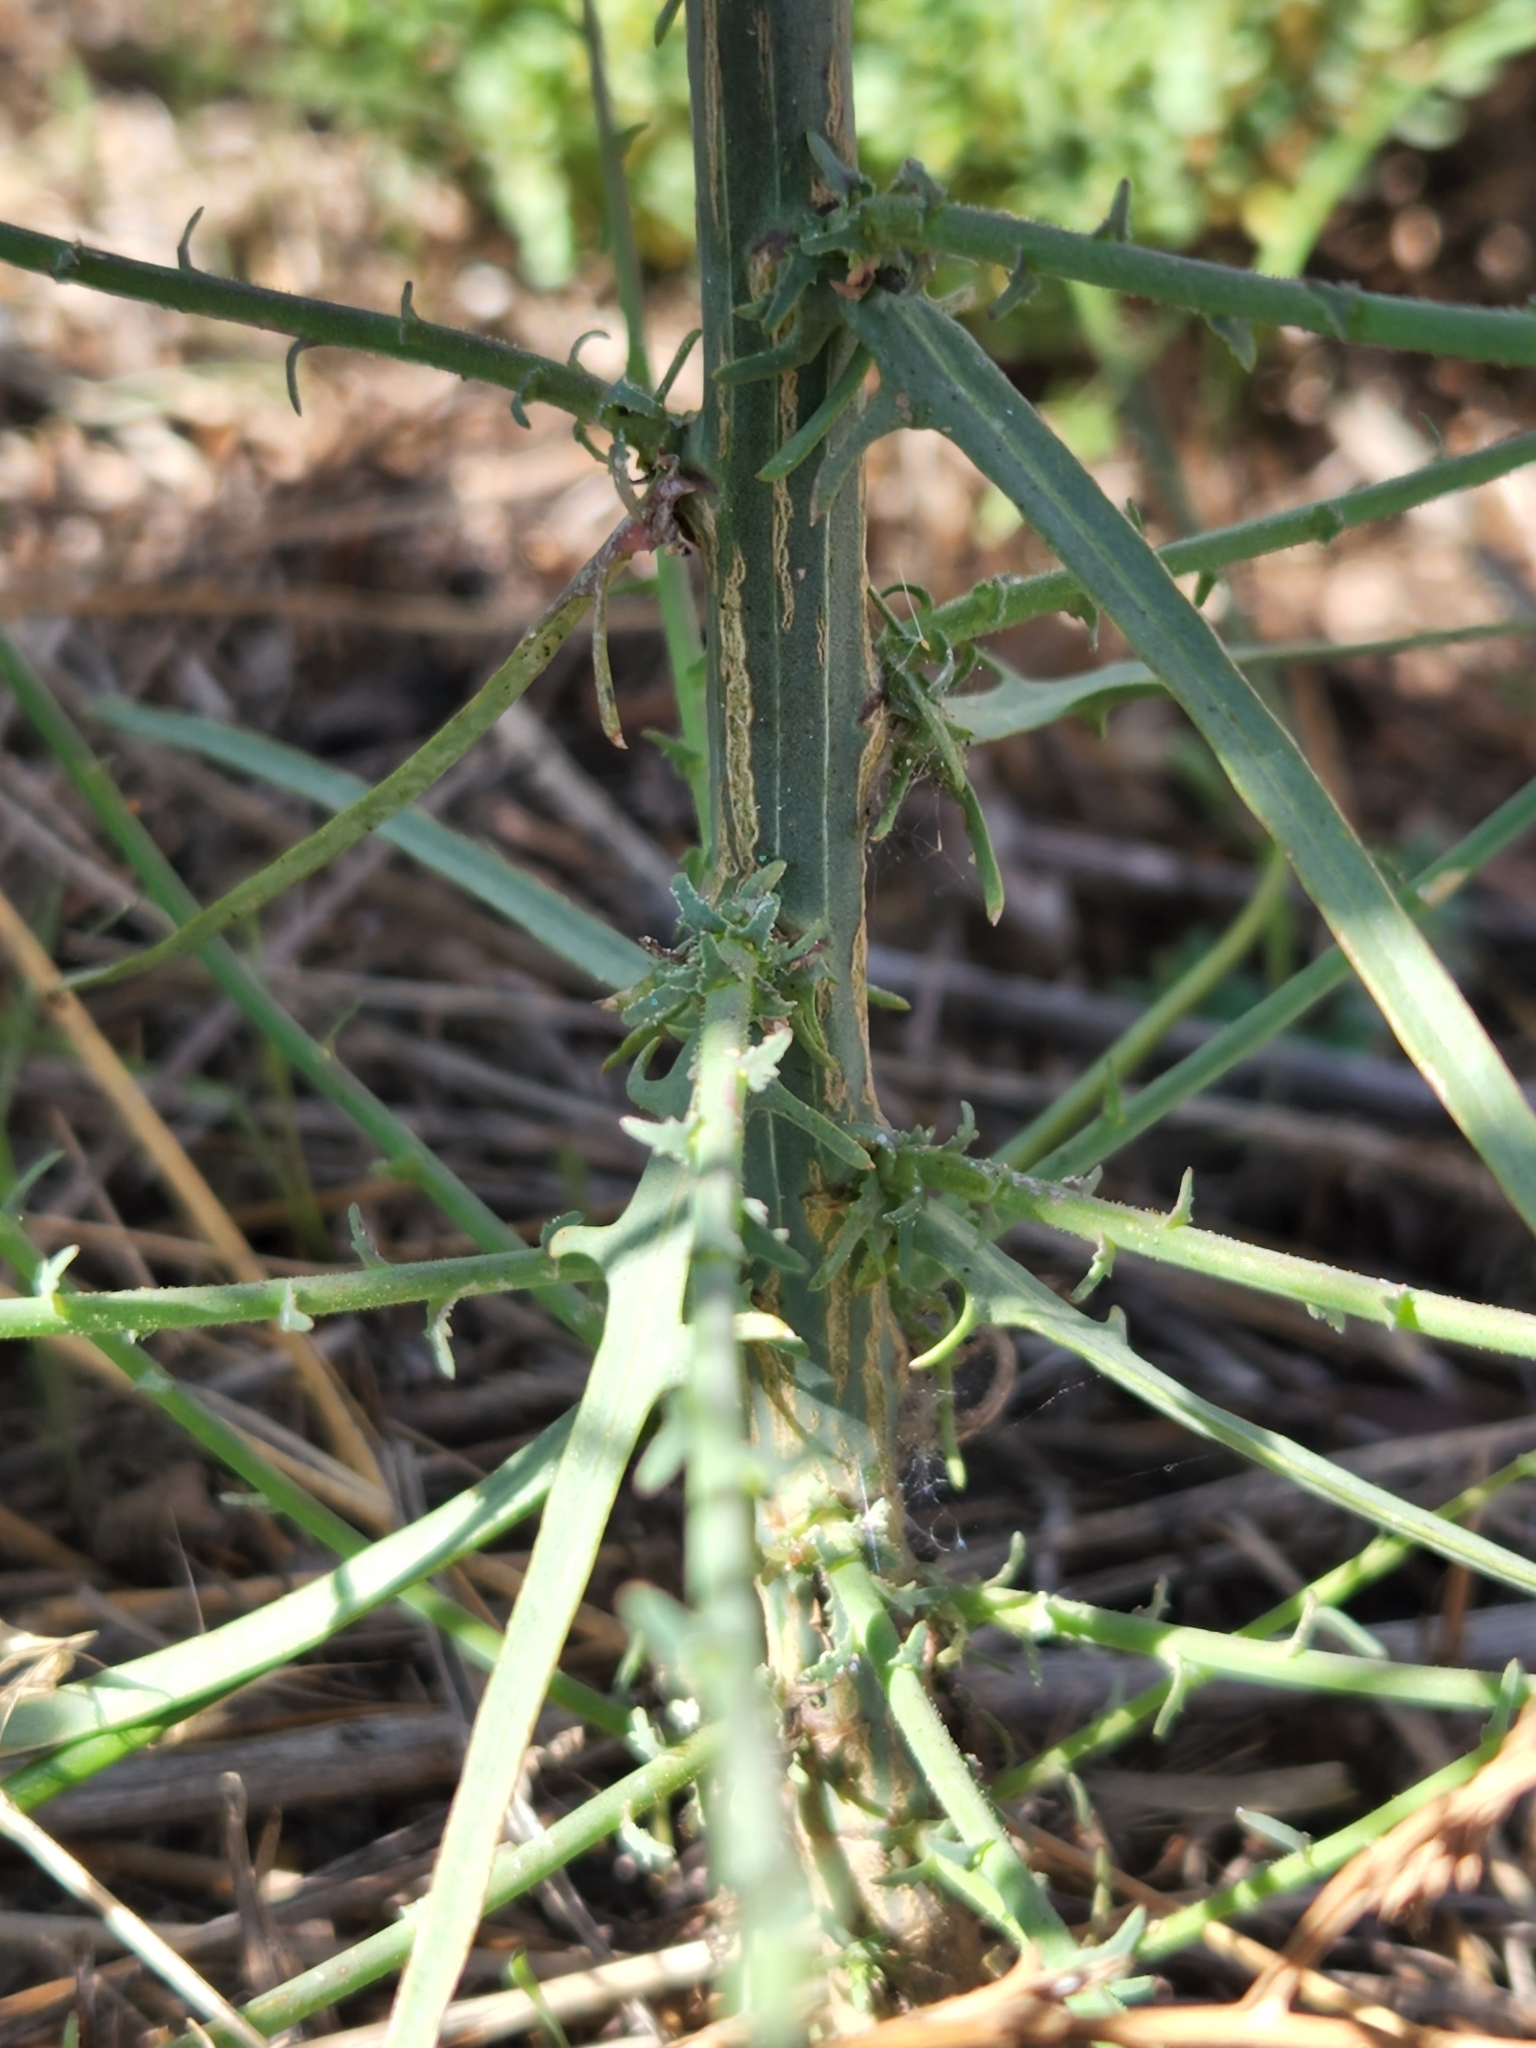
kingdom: Plantae
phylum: Tracheophyta
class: Magnoliopsida
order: Asterales
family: Asteraceae
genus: Stephanomeria
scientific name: Stephanomeria diegensis
